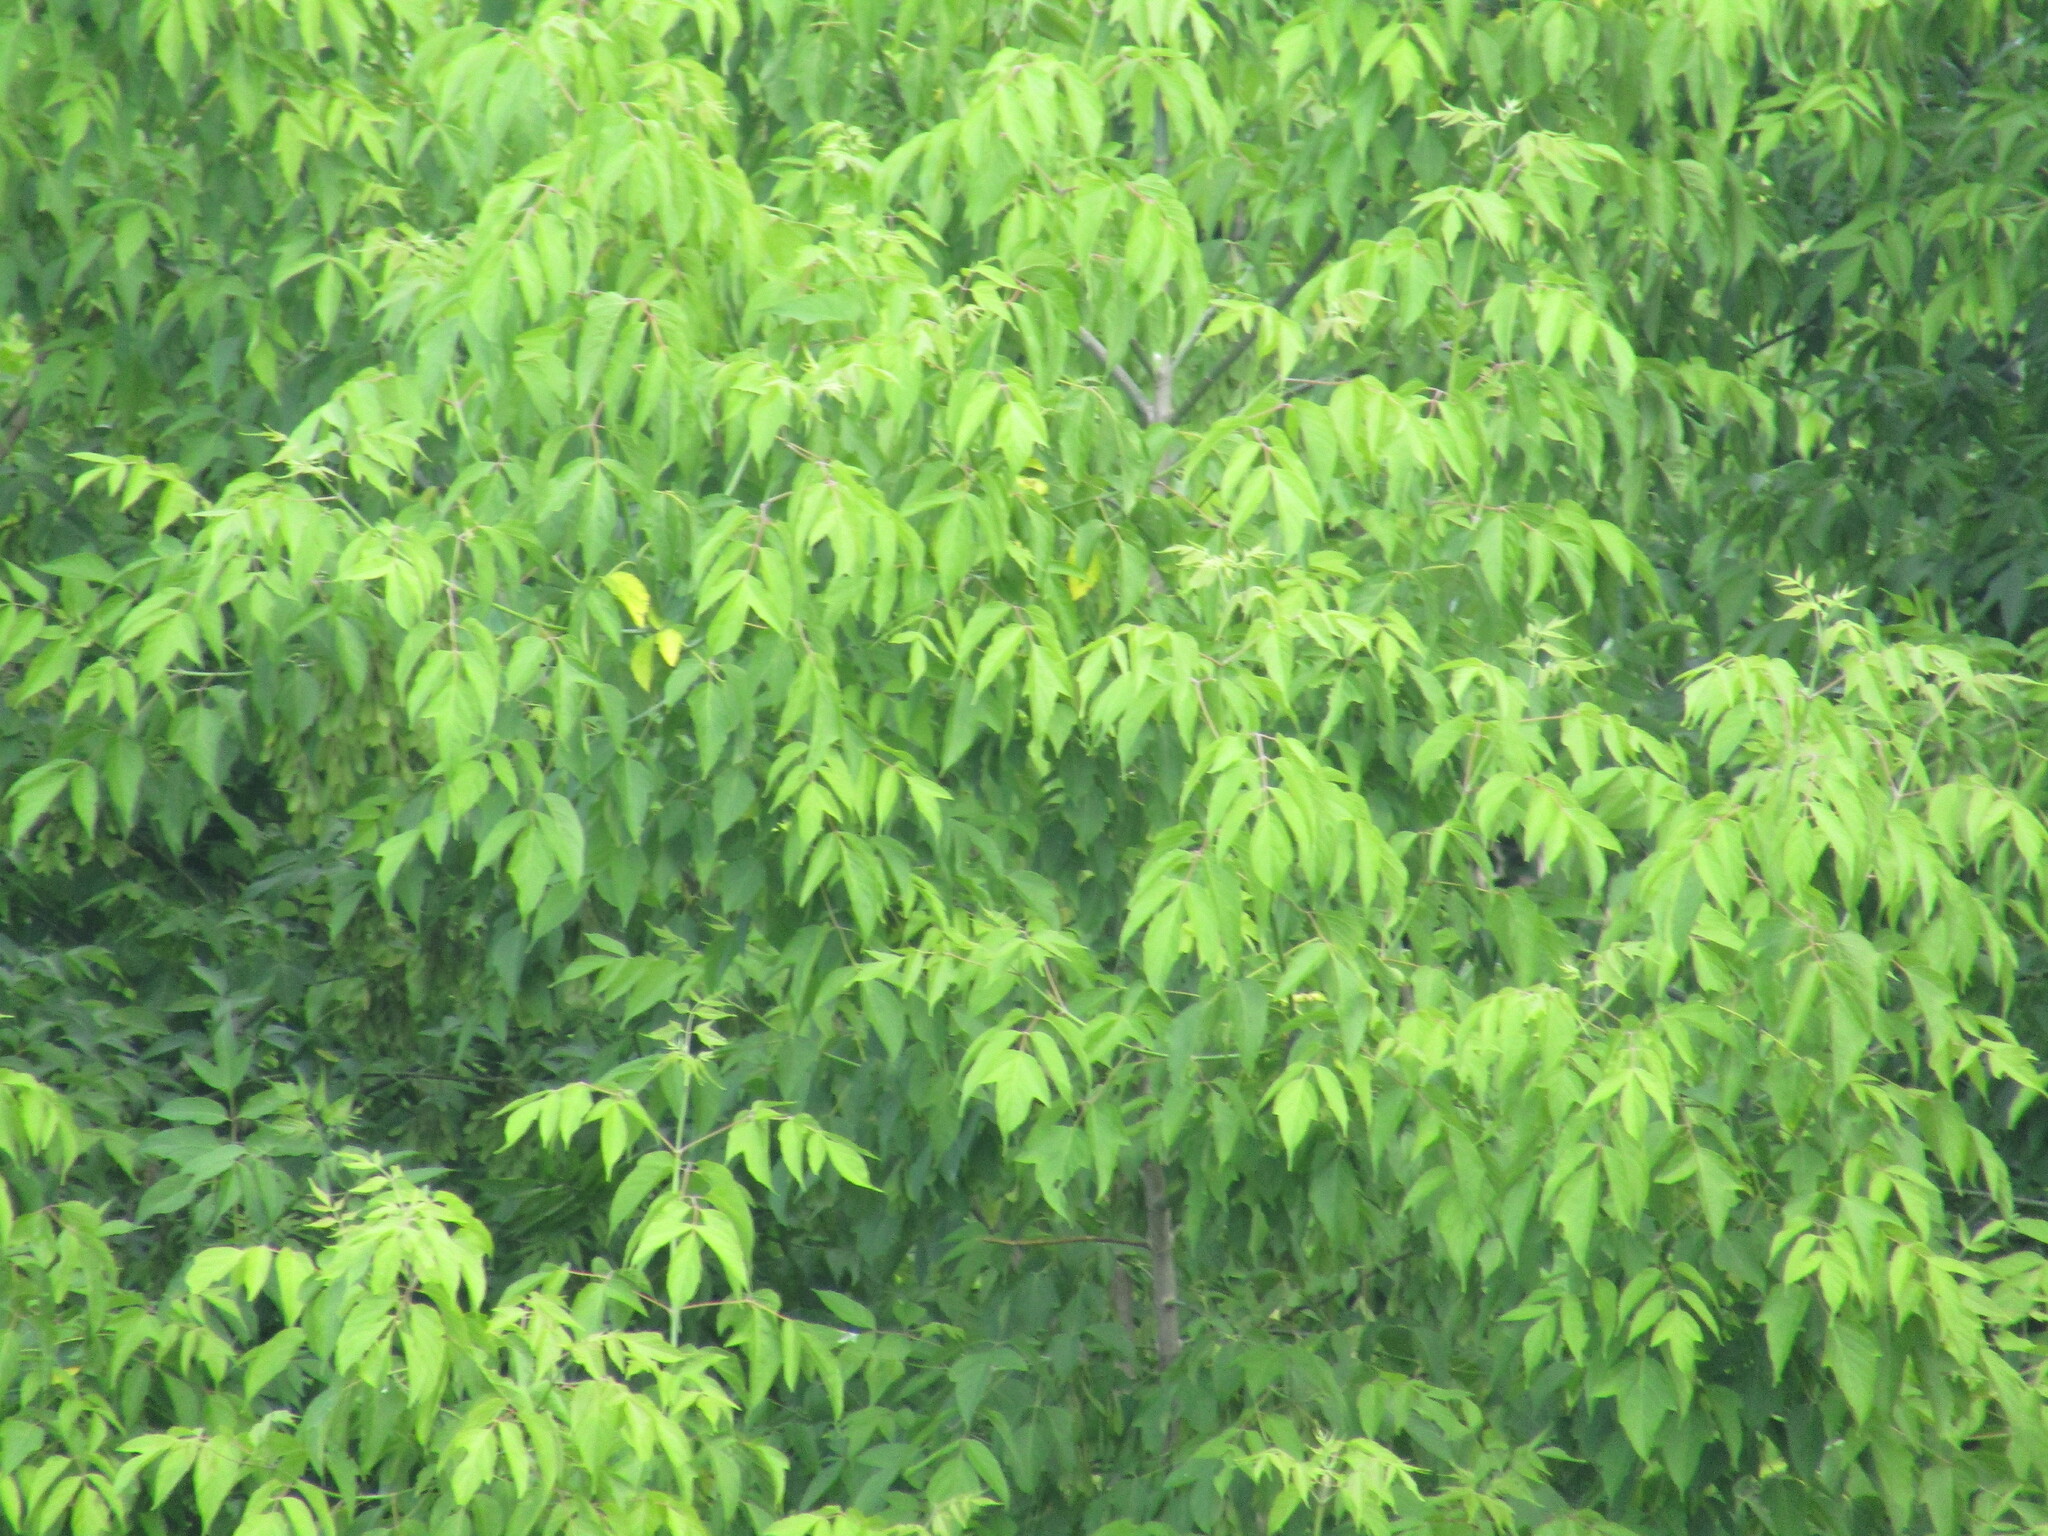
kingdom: Plantae
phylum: Tracheophyta
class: Magnoliopsida
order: Sapindales
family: Sapindaceae
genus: Acer
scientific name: Acer negundo
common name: Ashleaf maple
